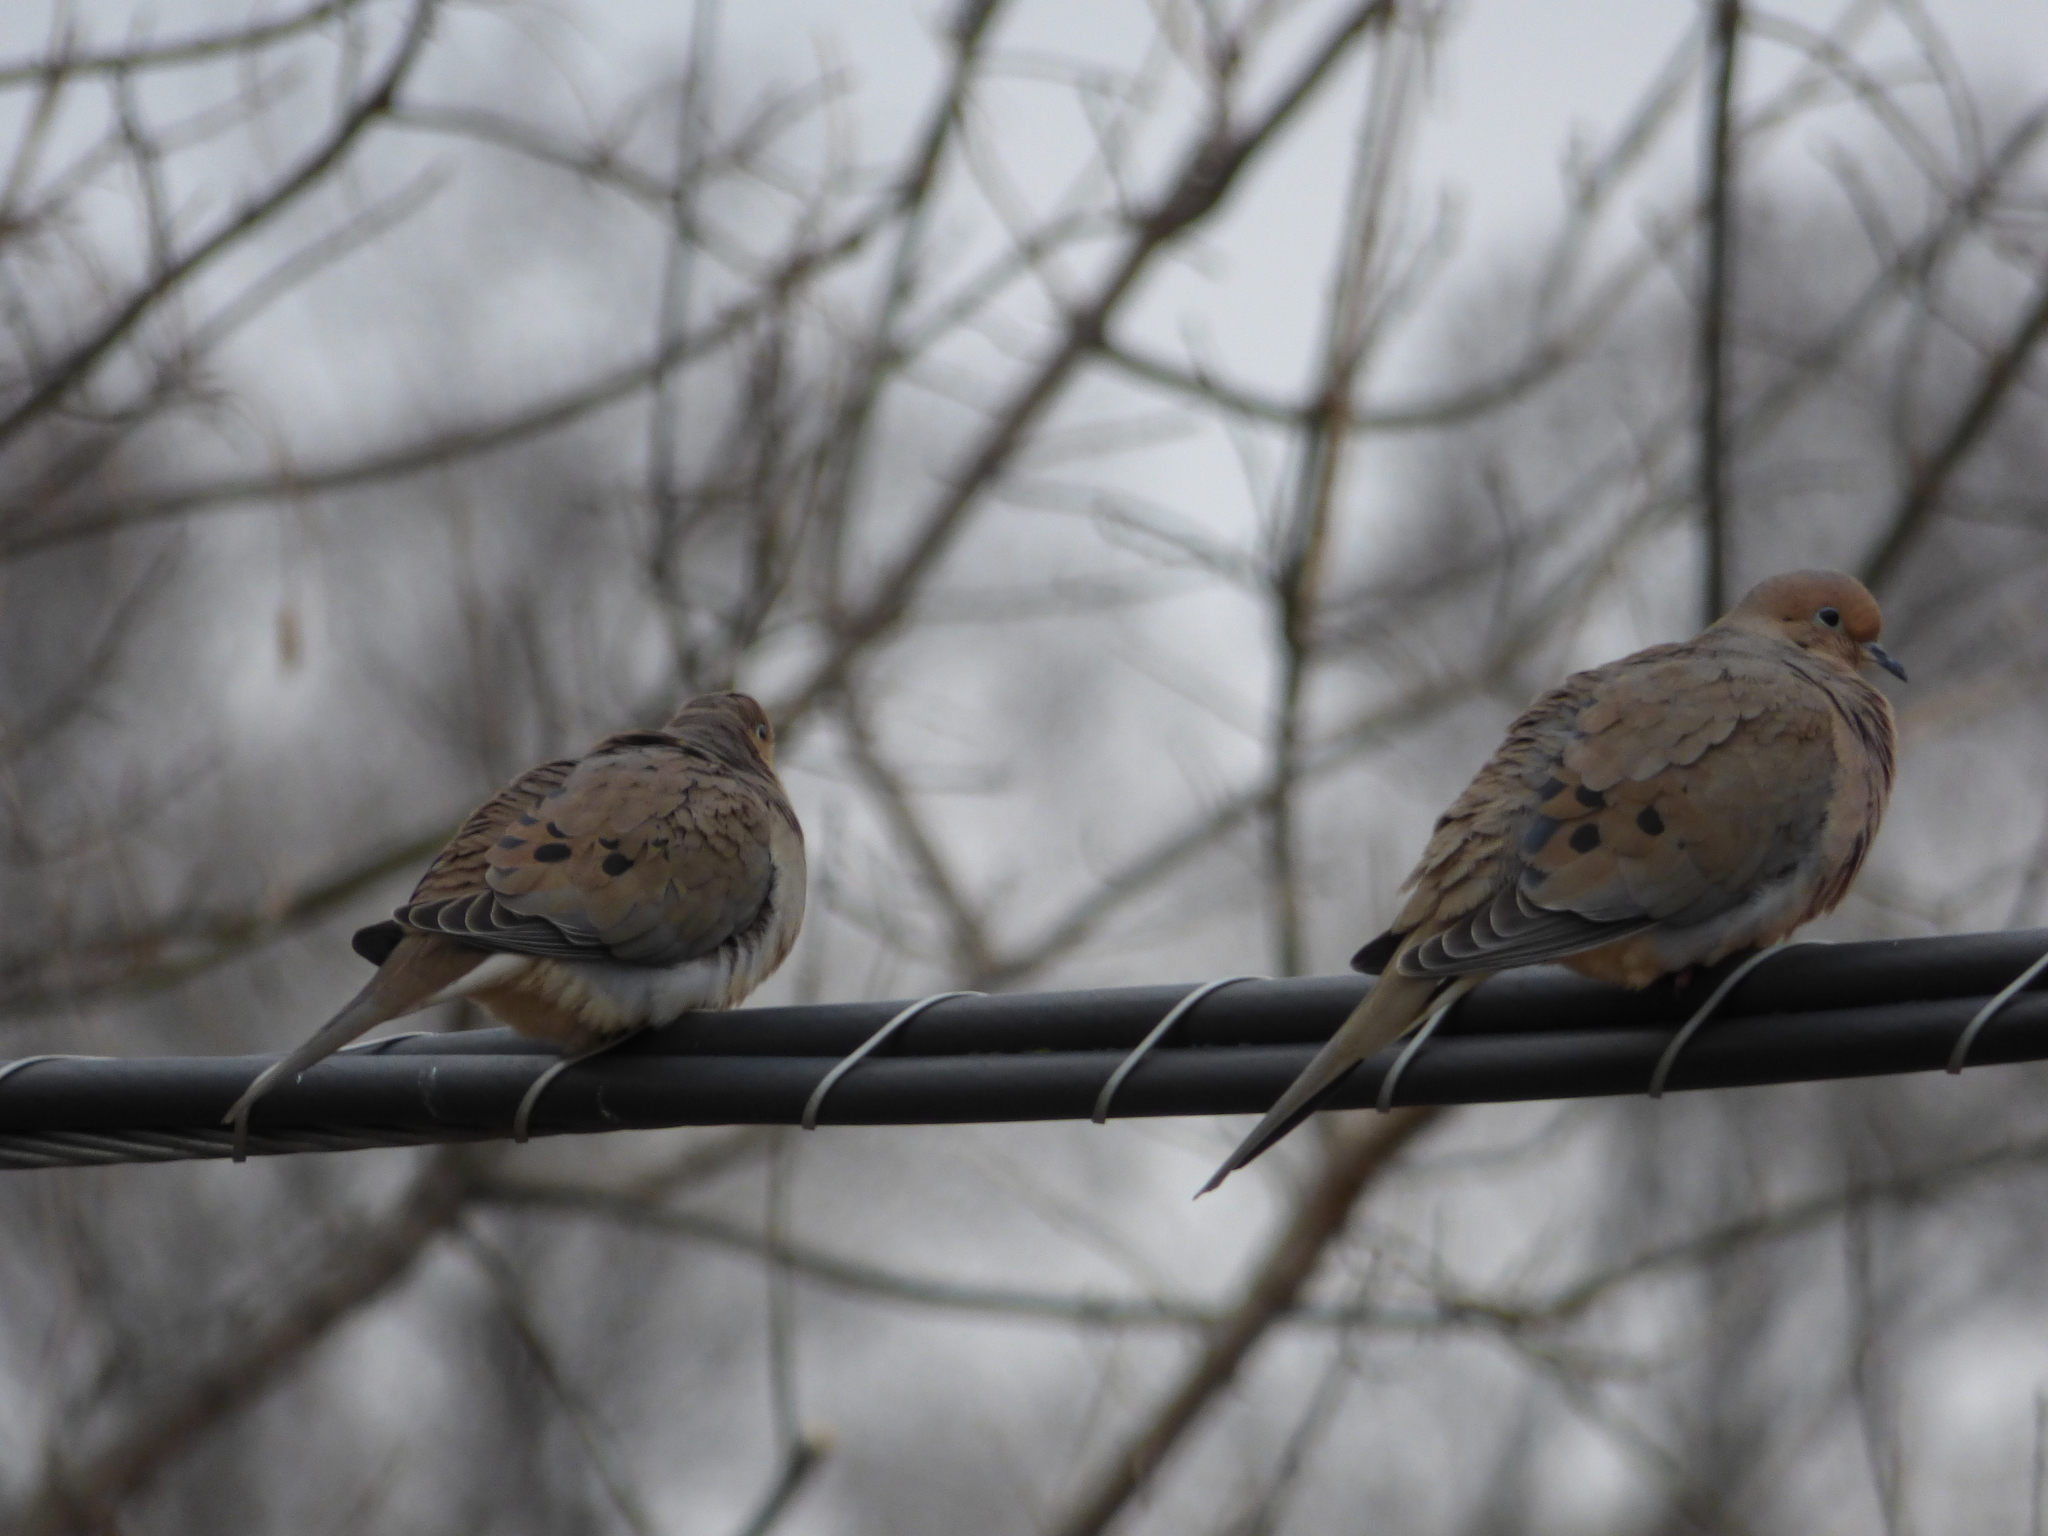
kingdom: Animalia
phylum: Chordata
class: Aves
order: Columbiformes
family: Columbidae
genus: Zenaida
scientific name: Zenaida macroura
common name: Mourning dove
